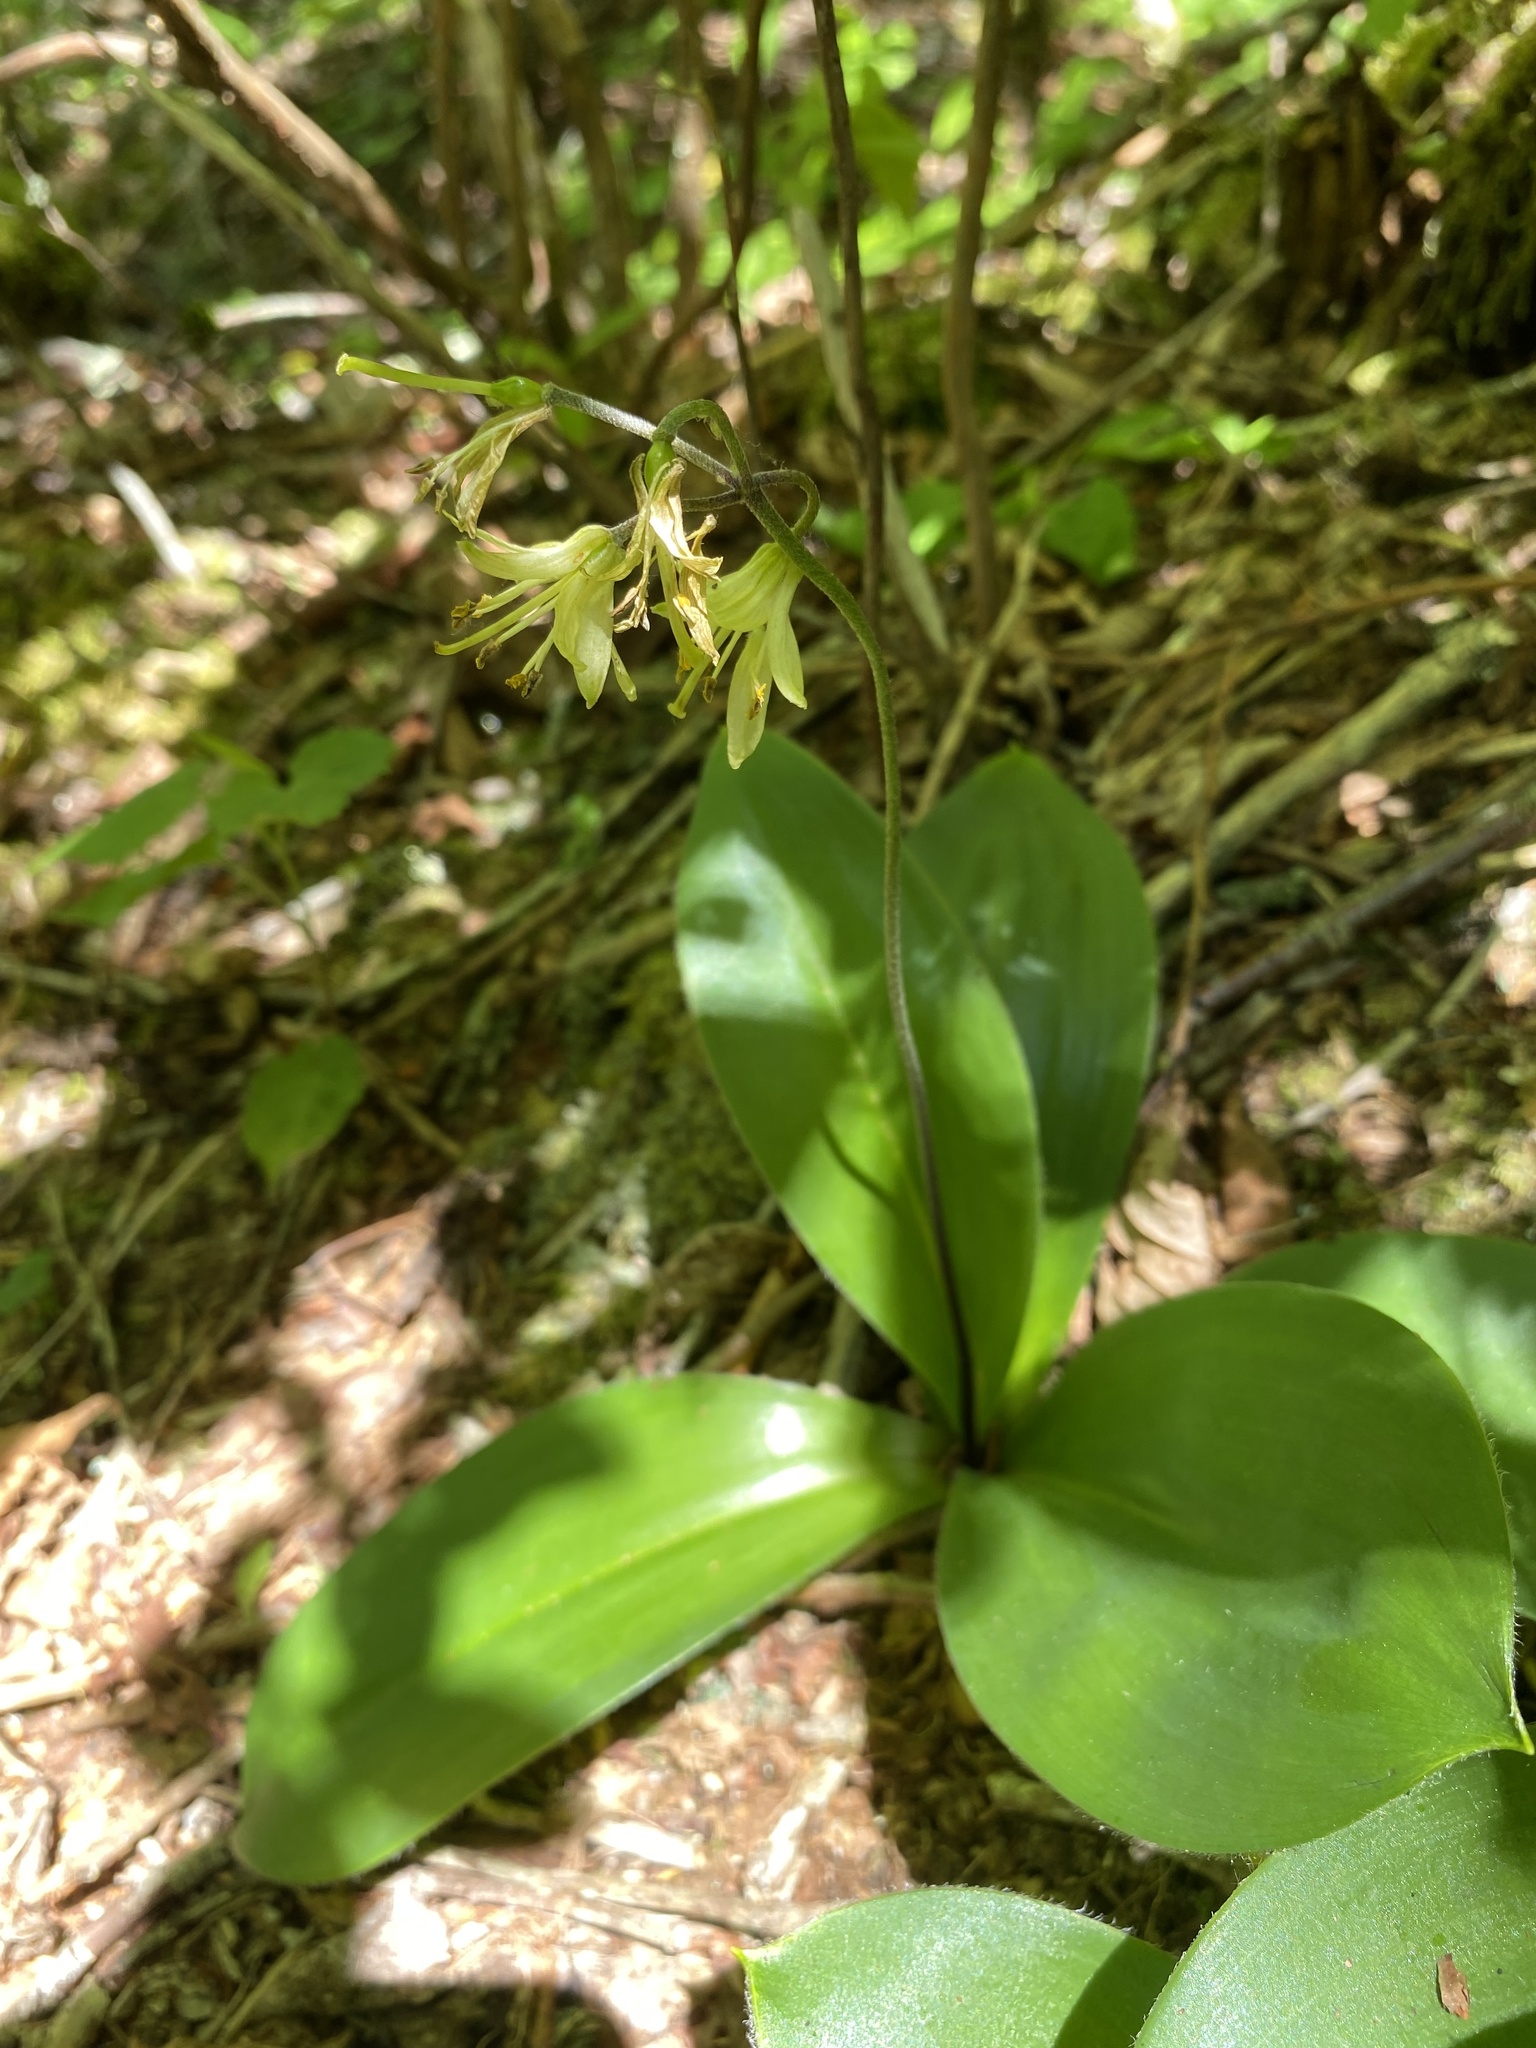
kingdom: Plantae
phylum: Tracheophyta
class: Liliopsida
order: Liliales
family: Liliaceae
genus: Clintonia
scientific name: Clintonia borealis
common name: Yellow clintonia
